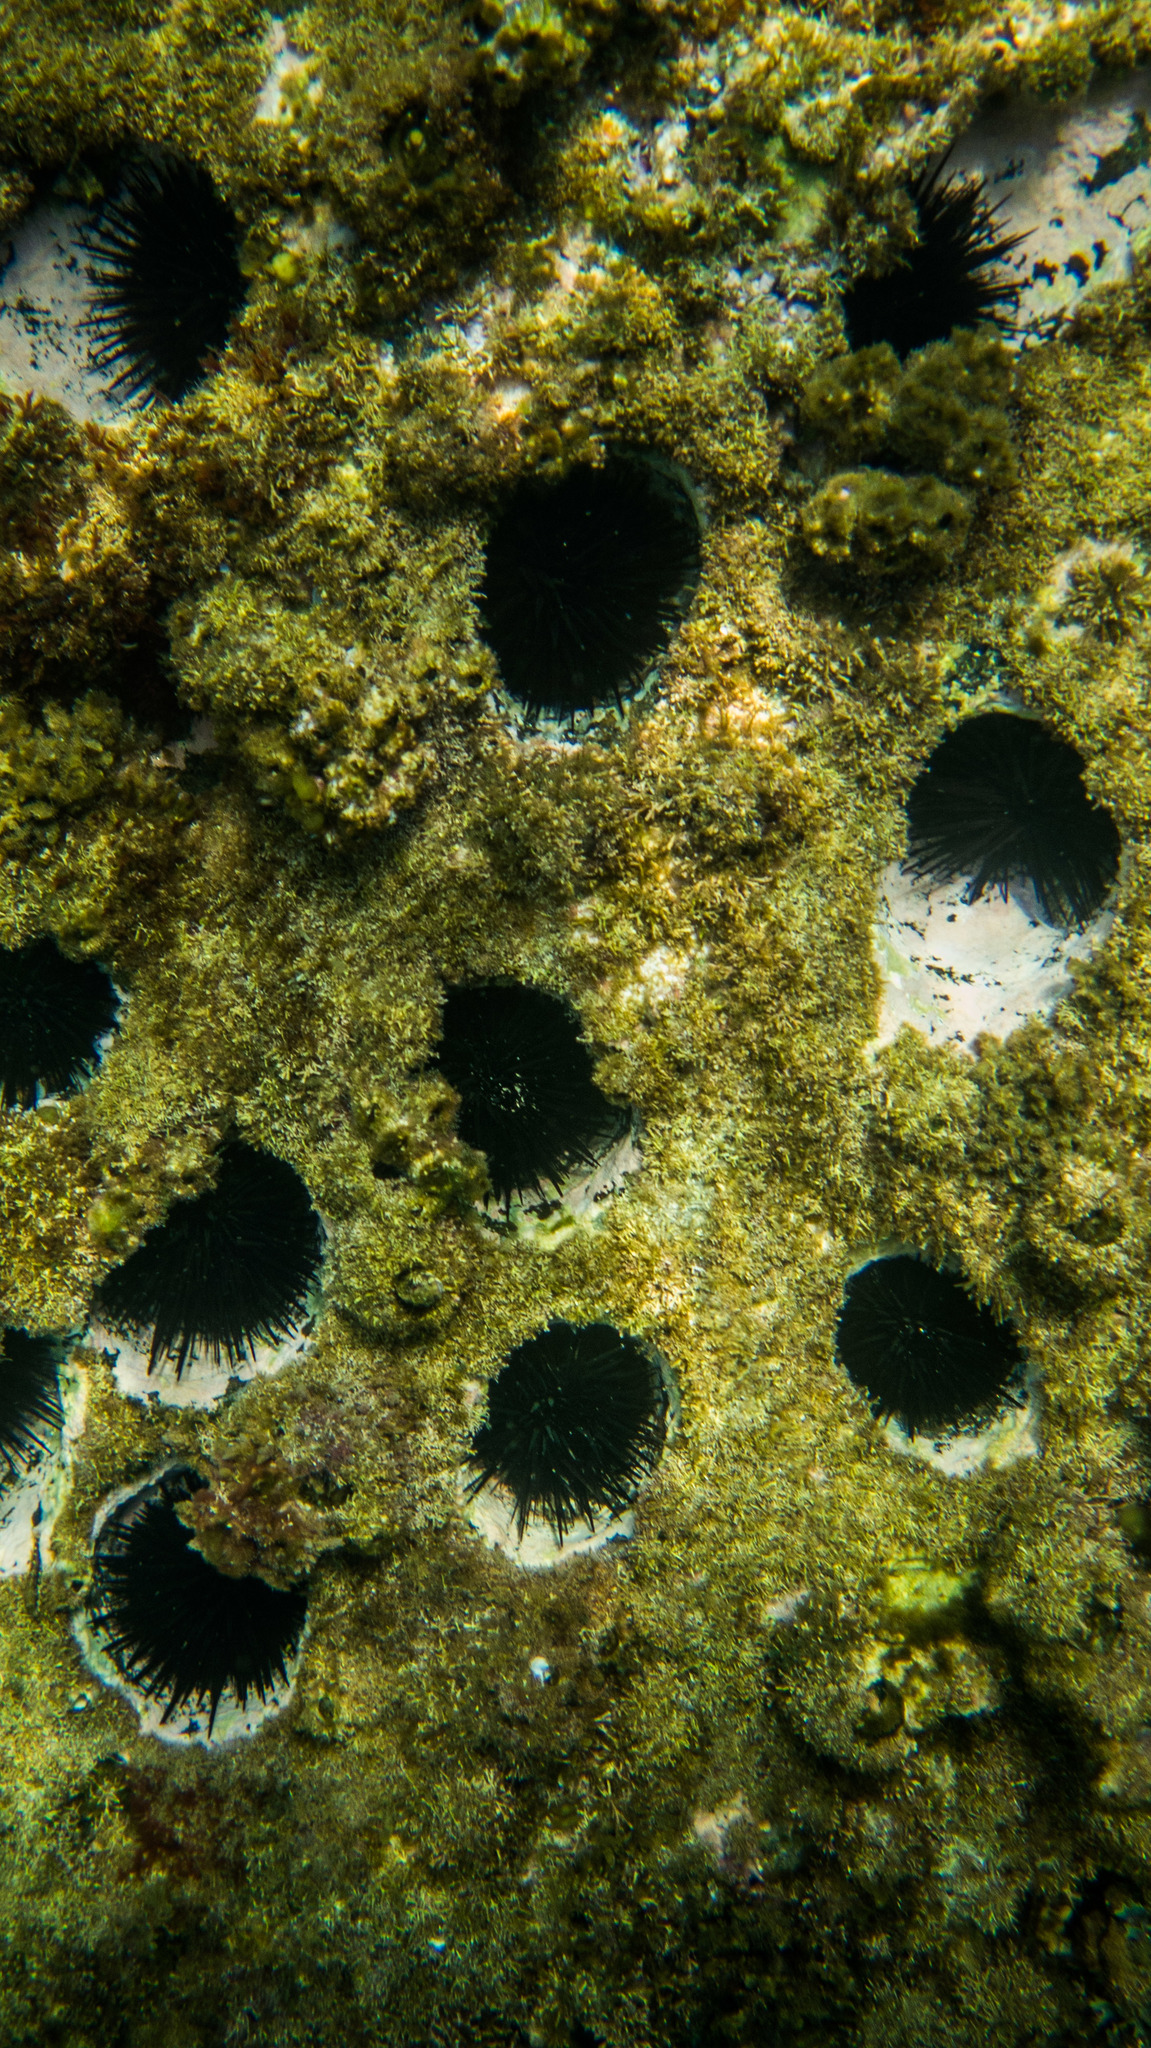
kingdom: Animalia
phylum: Echinodermata
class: Echinoidea
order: Camarodonta
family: Echinometridae
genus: Echinometra
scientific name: Echinometra lucunter
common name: Rock urchin
